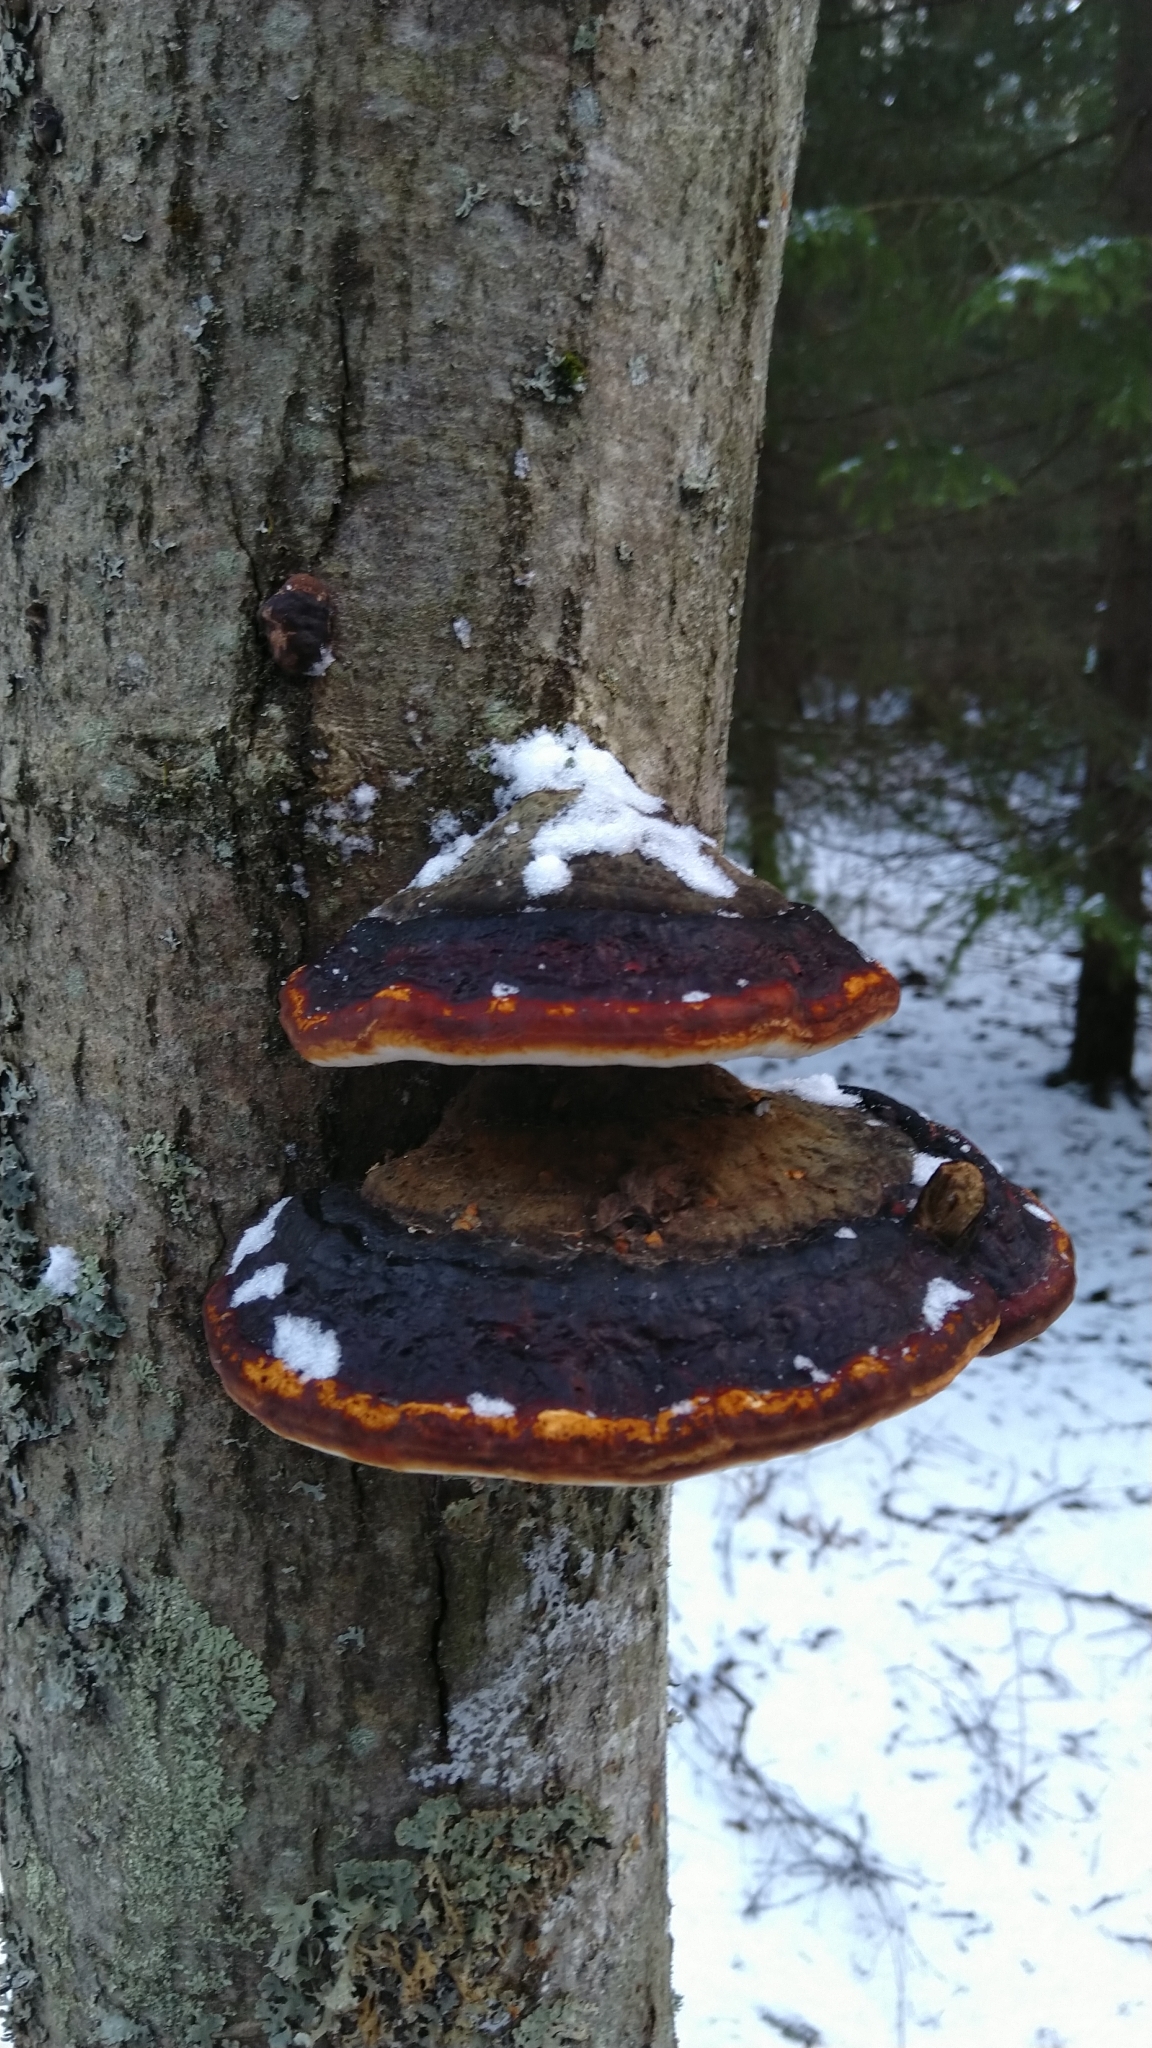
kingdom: Fungi
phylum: Basidiomycota
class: Agaricomycetes
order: Polyporales
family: Fomitopsidaceae
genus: Fomitopsis
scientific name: Fomitopsis pinicola
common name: Red-belted bracket
